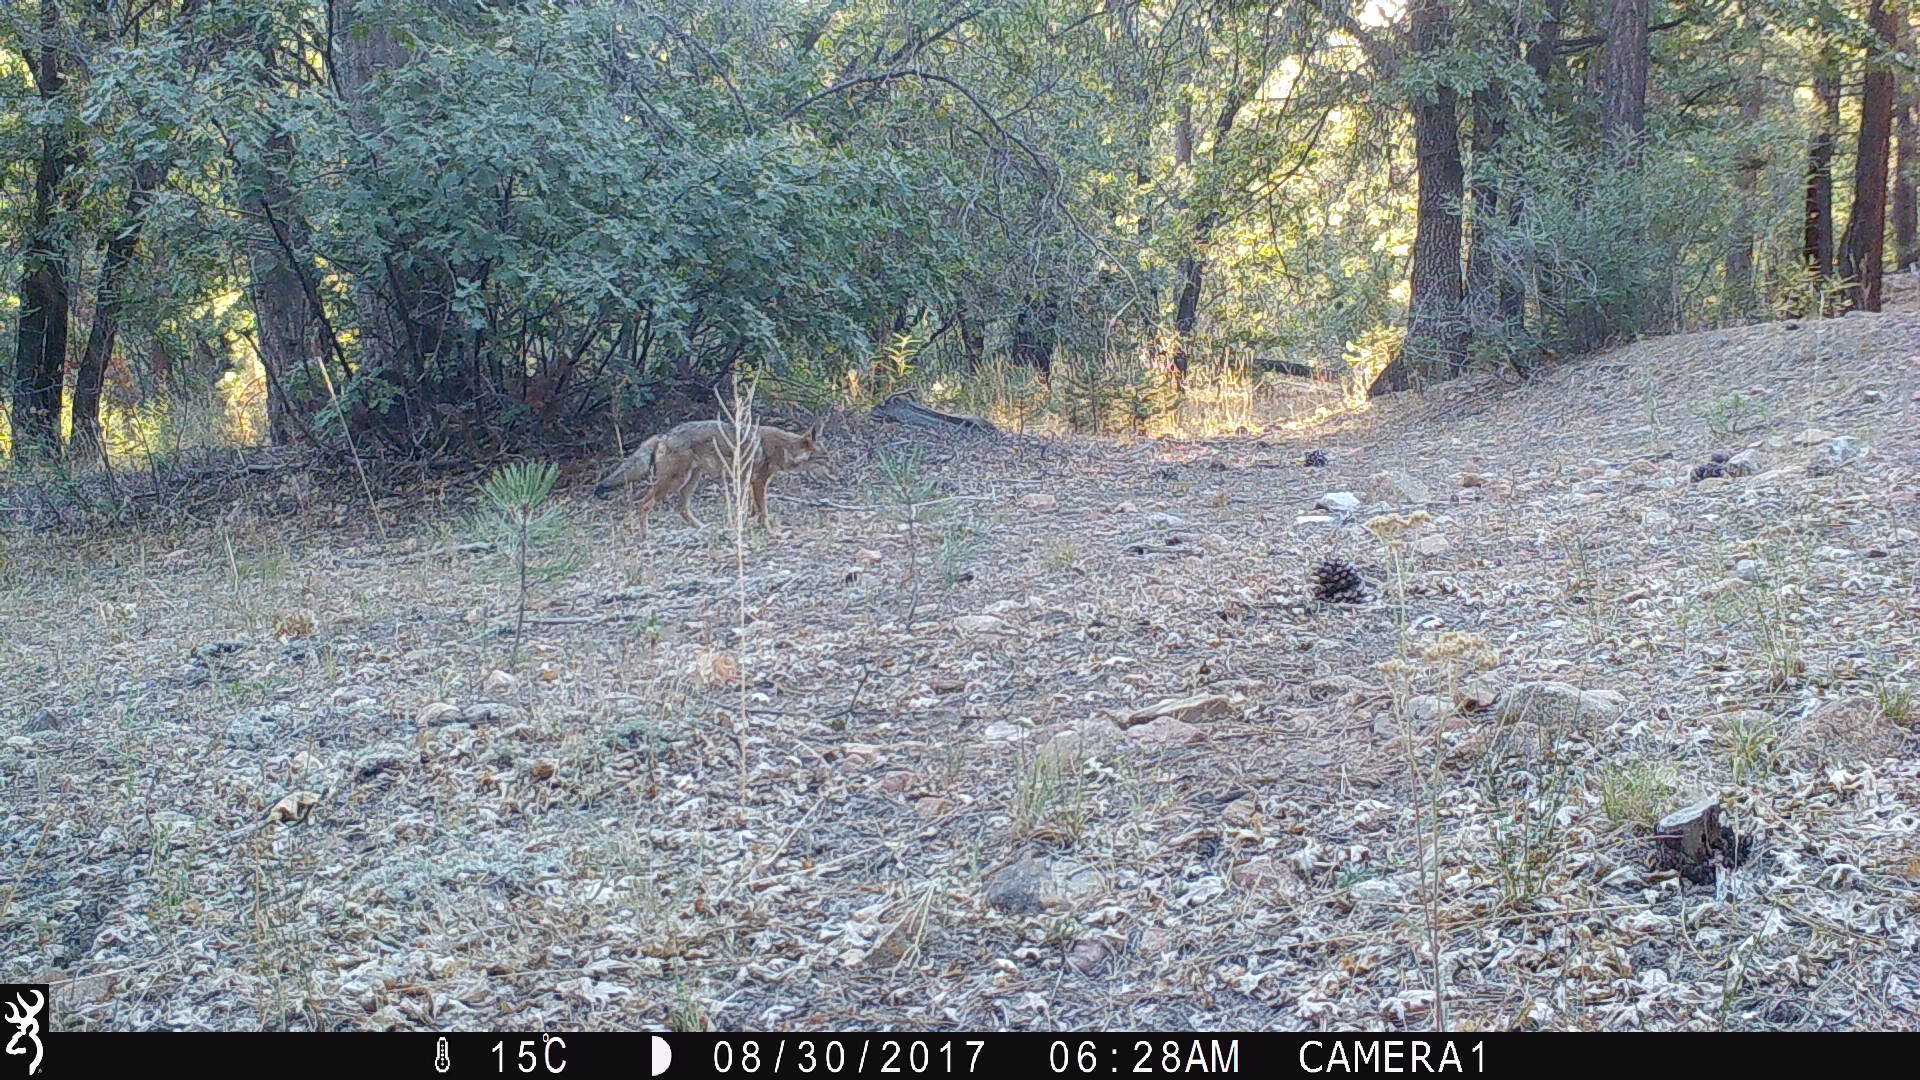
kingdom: Animalia
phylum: Chordata
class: Mammalia
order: Carnivora
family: Canidae
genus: Canis
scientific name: Canis latrans
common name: Coyote
